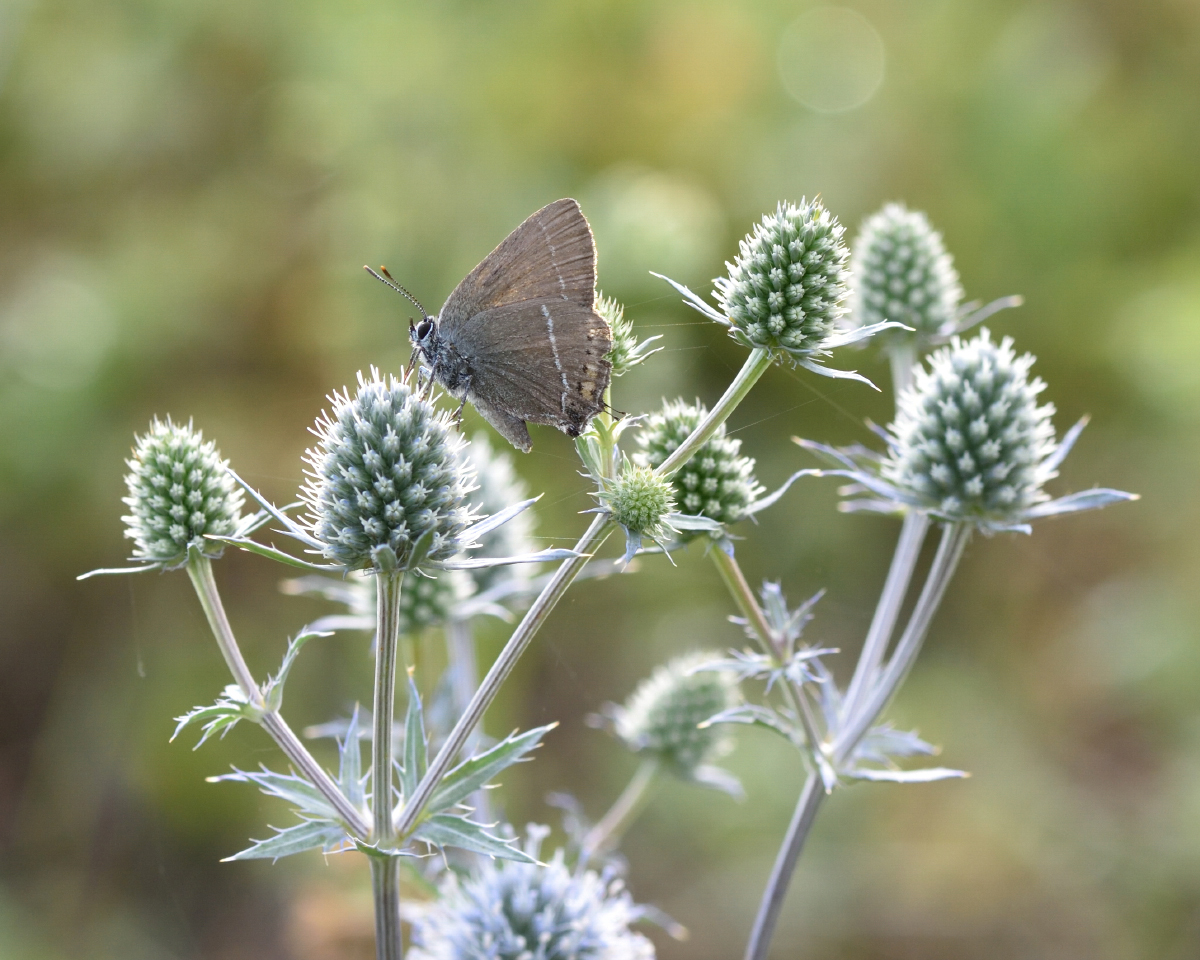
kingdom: Animalia
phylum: Arthropoda
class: Insecta
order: Lepidoptera
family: Lycaenidae
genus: Tuttiola
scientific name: Tuttiola spini
